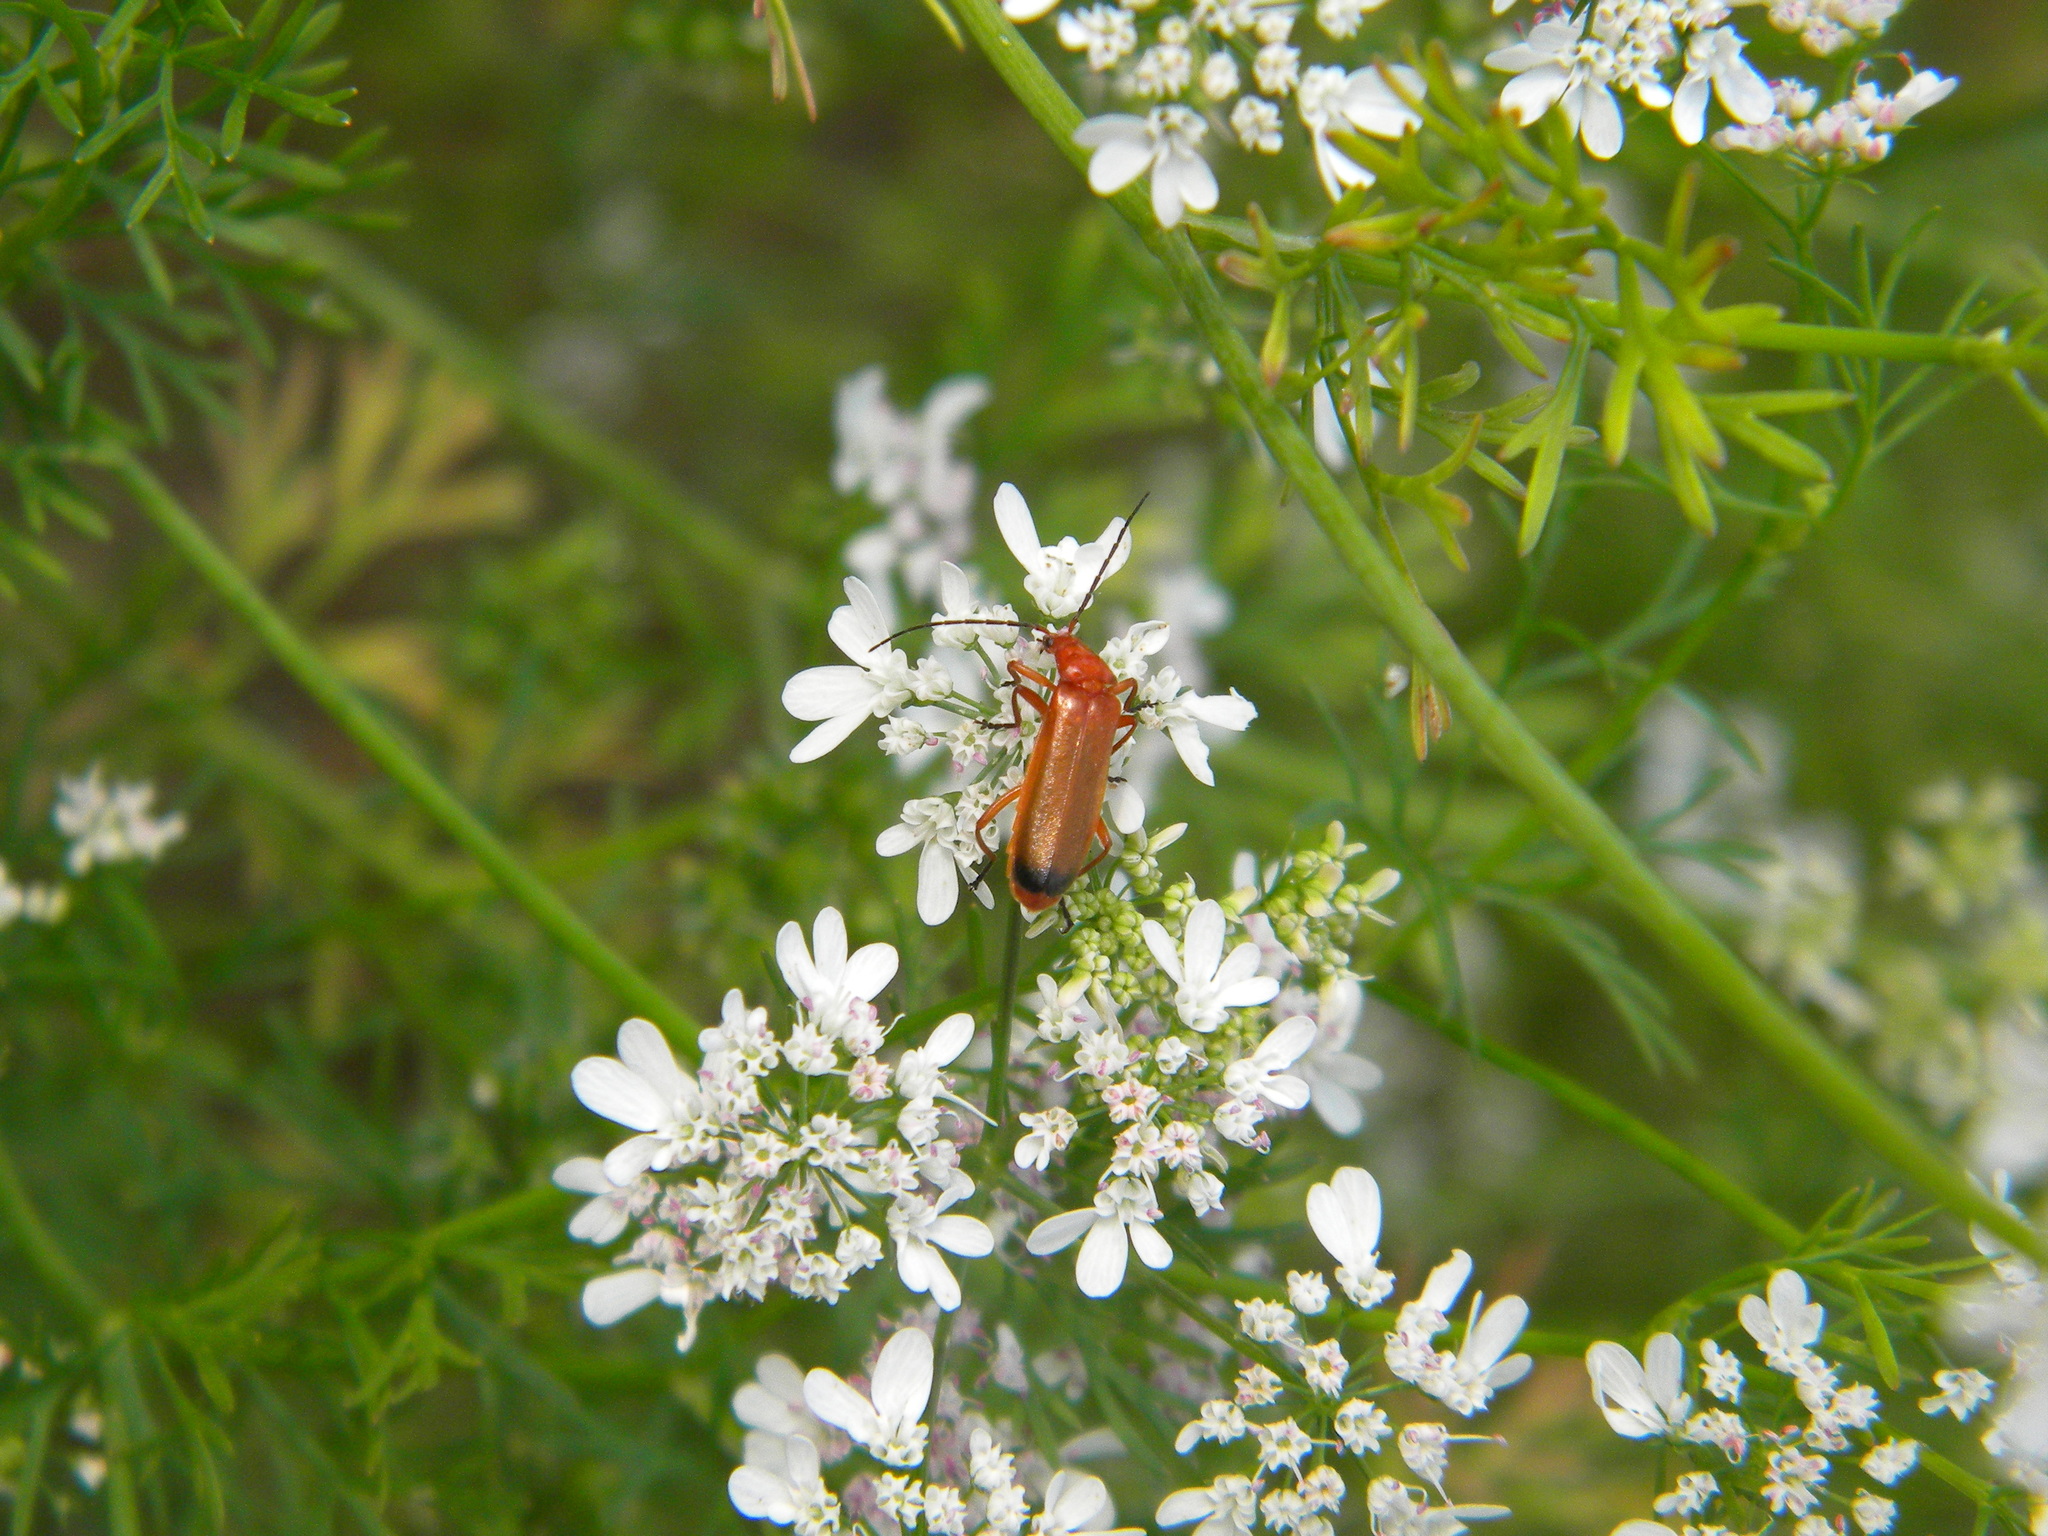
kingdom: Animalia
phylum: Arthropoda
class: Insecta
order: Coleoptera
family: Cantharidae
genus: Rhagonycha
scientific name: Rhagonycha fulva
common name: Common red soldier beetle
